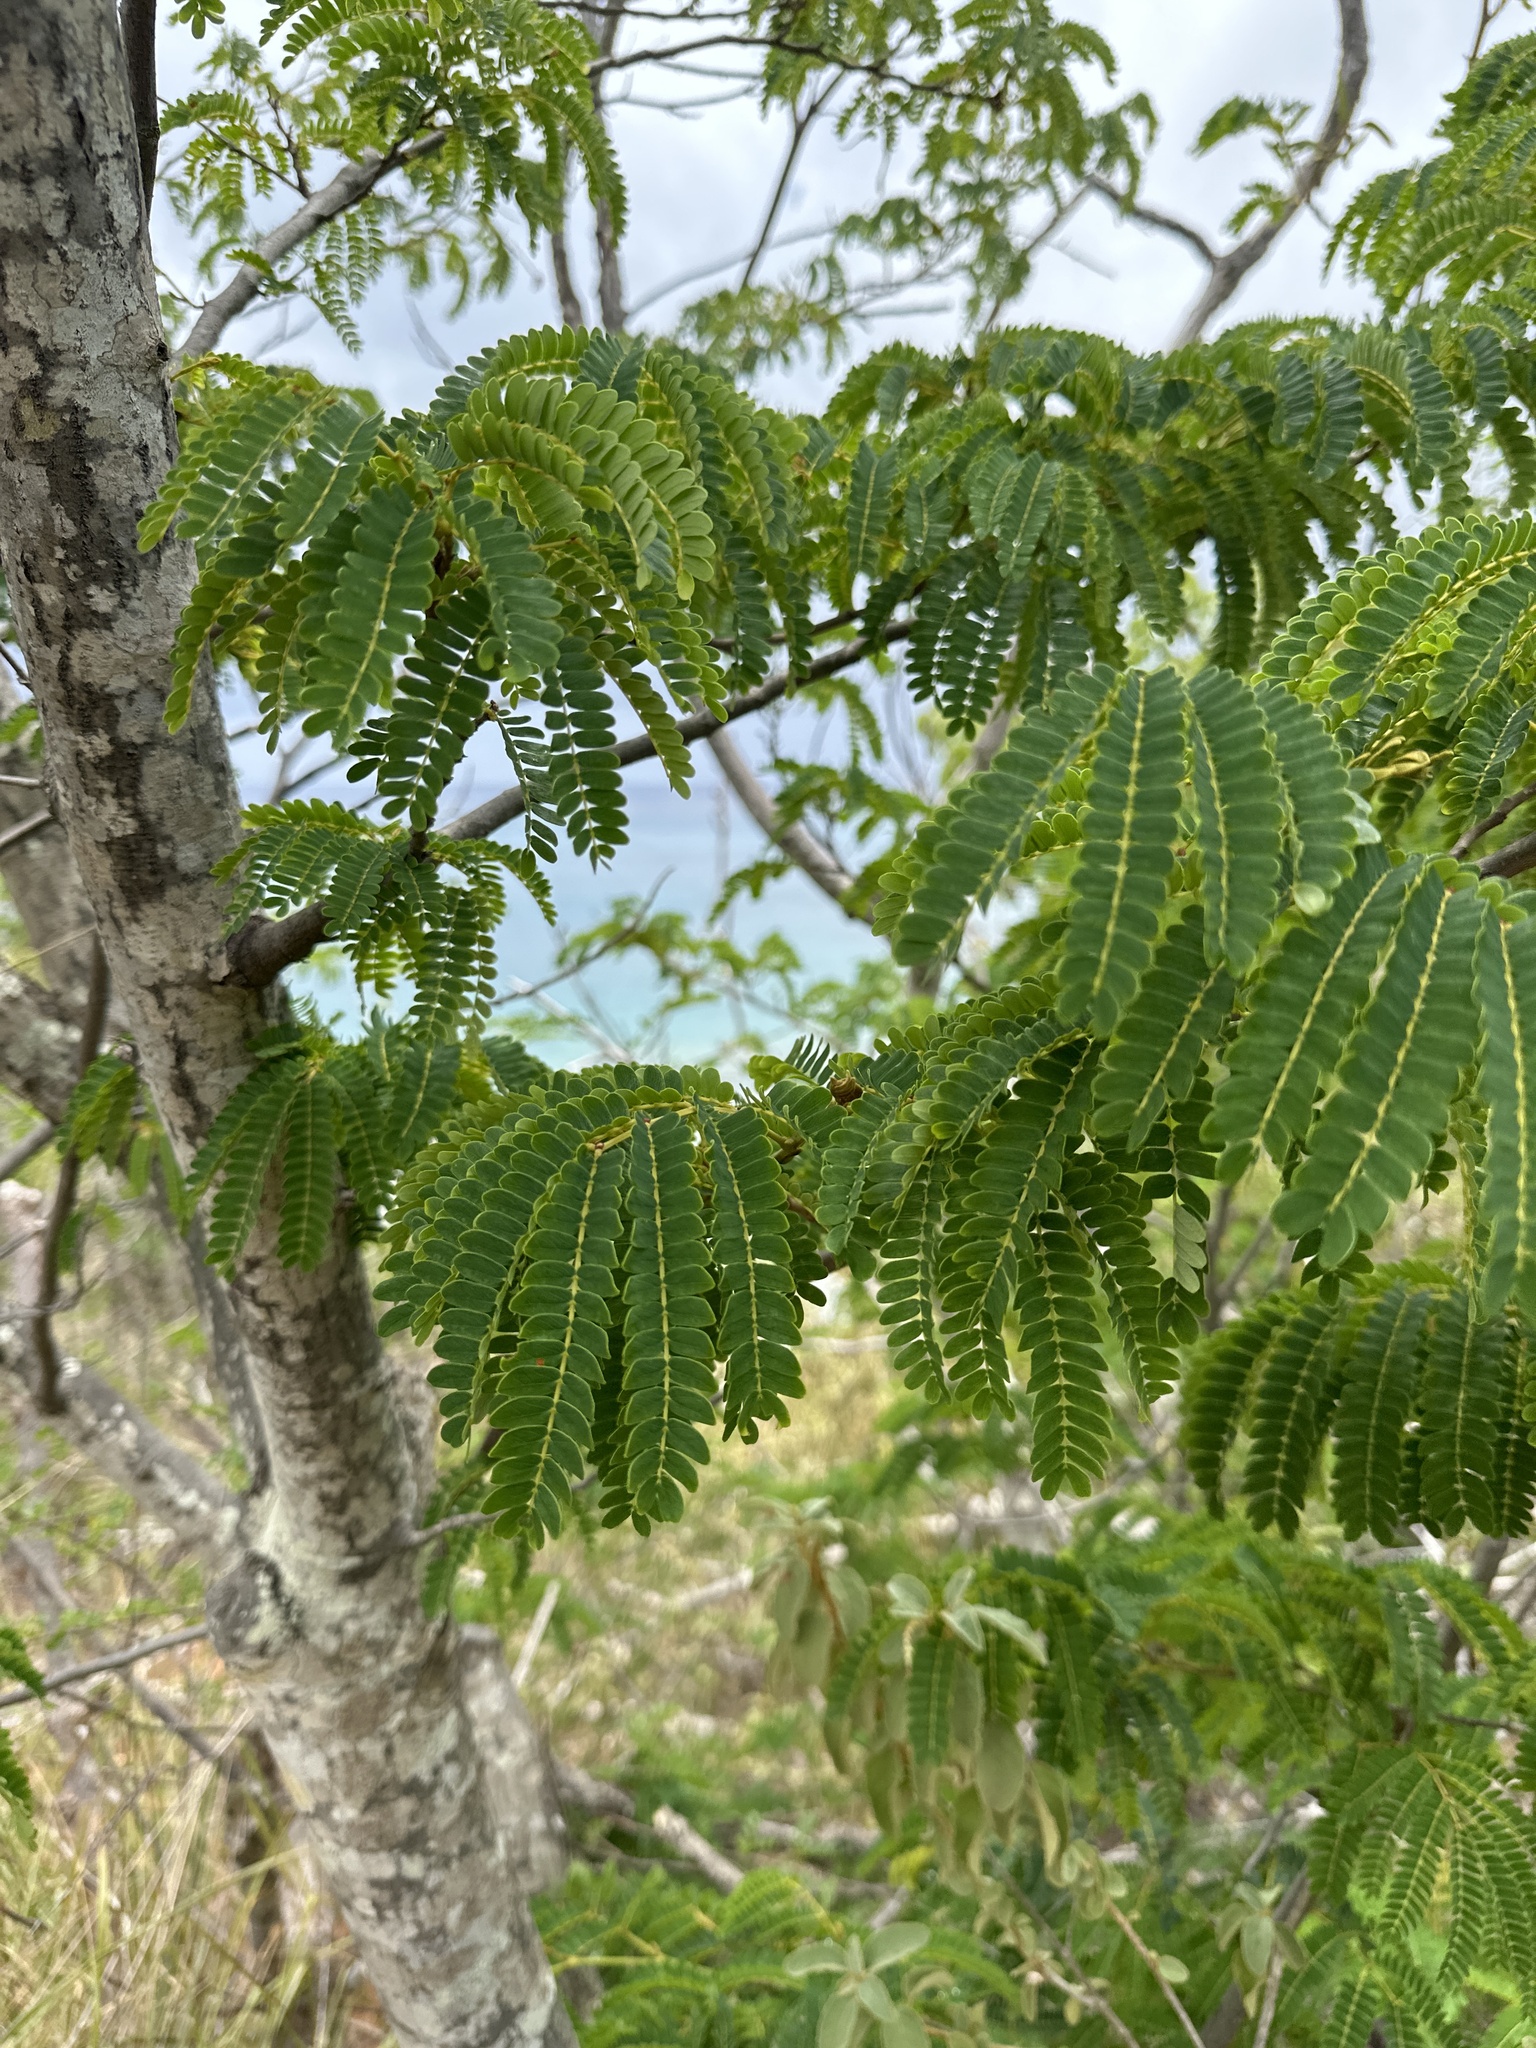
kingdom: Plantae
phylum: Tracheophyta
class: Magnoliopsida
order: Fabales
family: Fabaceae
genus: Parasenegalia
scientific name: Parasenegalia muricata
